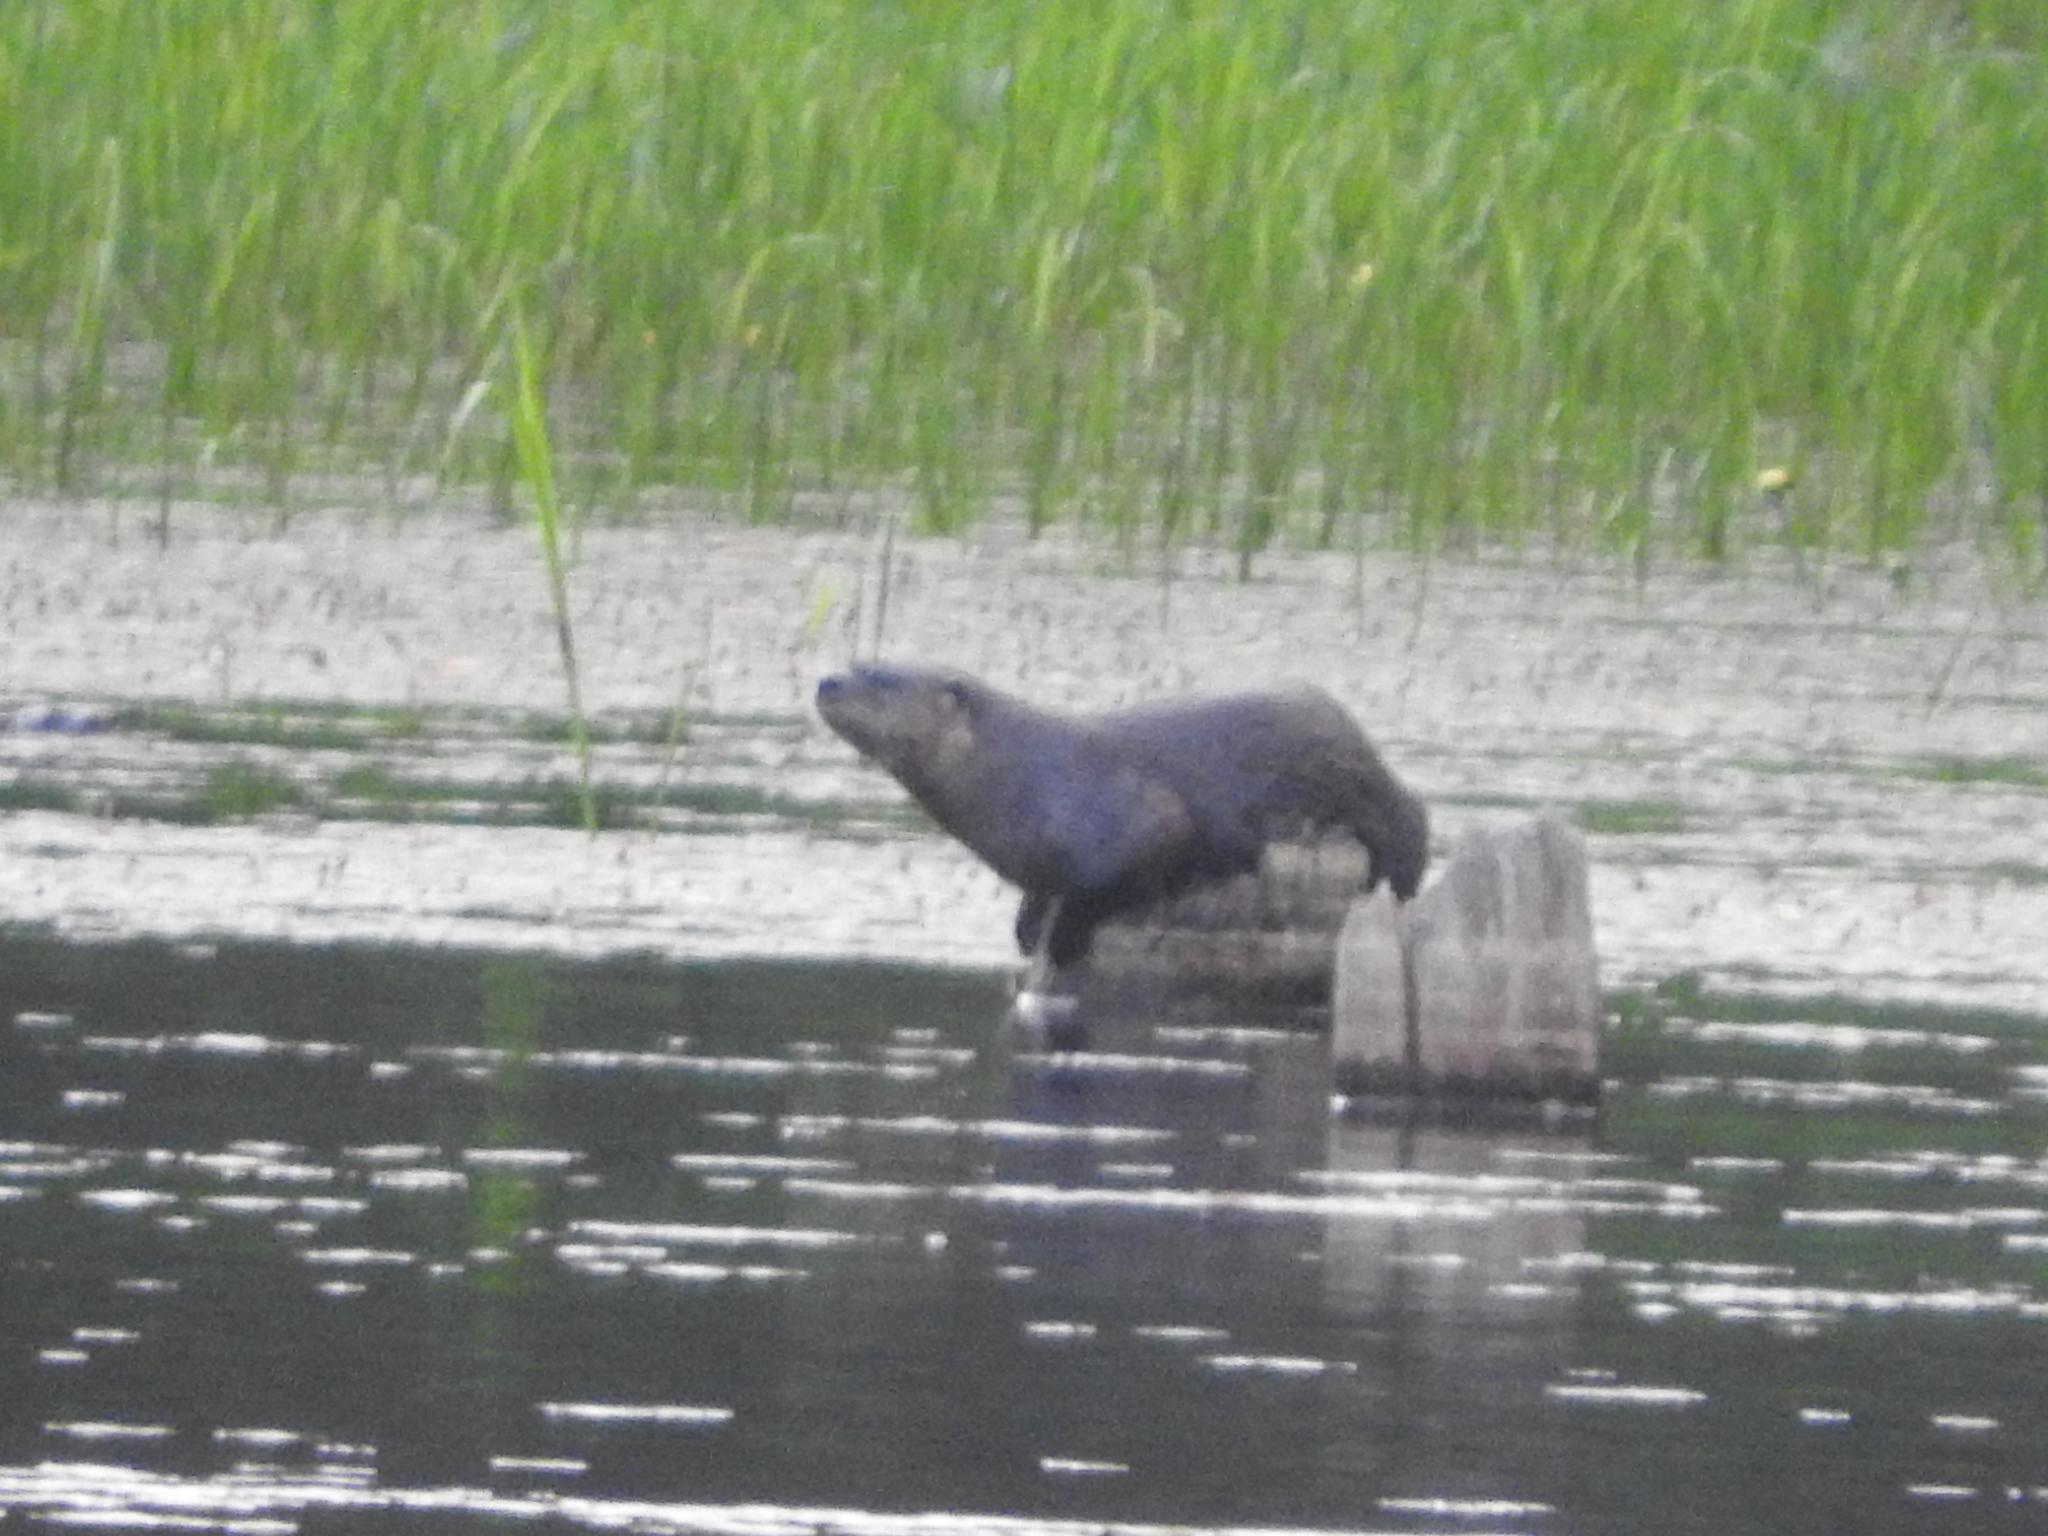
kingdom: Animalia
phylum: Chordata
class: Mammalia
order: Carnivora
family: Mustelidae
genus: Lontra
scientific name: Lontra canadensis
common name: North american river otter
